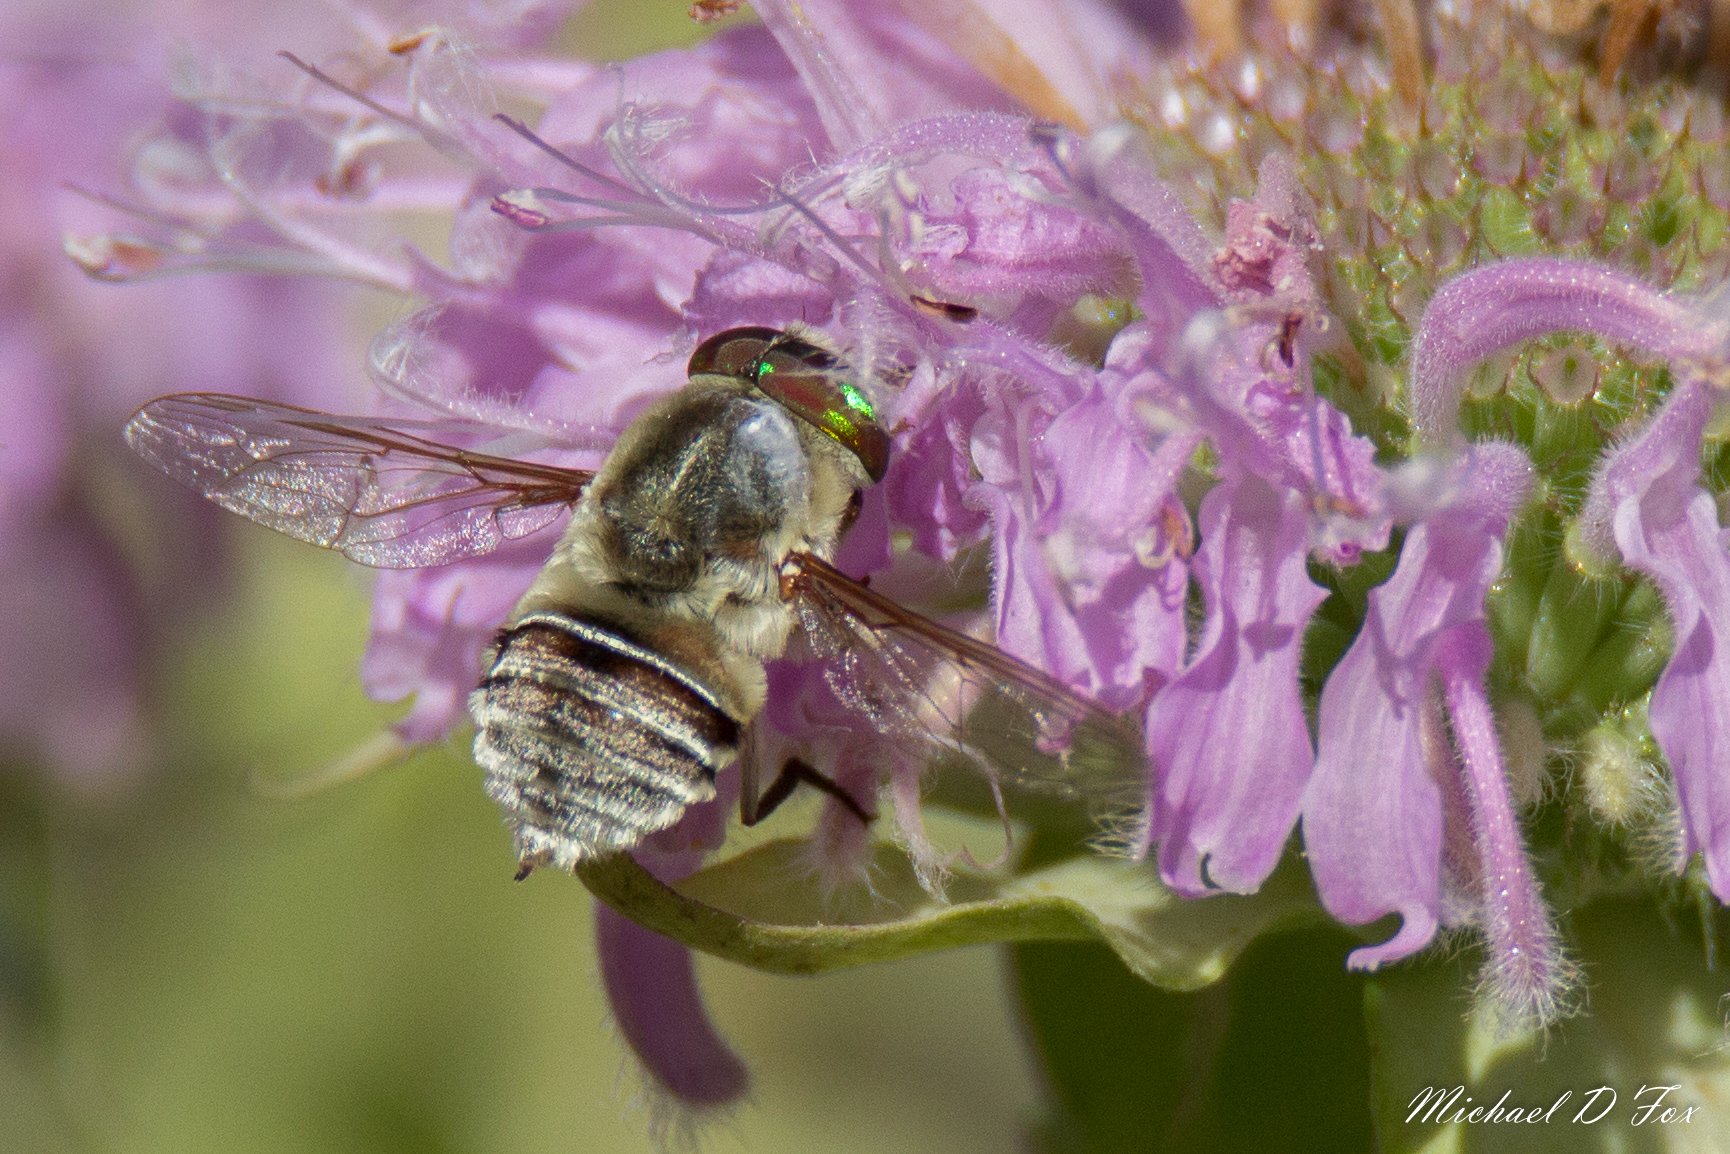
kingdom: Animalia
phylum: Arthropoda
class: Insecta
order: Diptera
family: Nemestrinidae
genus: Neorhynchocephalus
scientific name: Neorhynchocephalus volaticus
